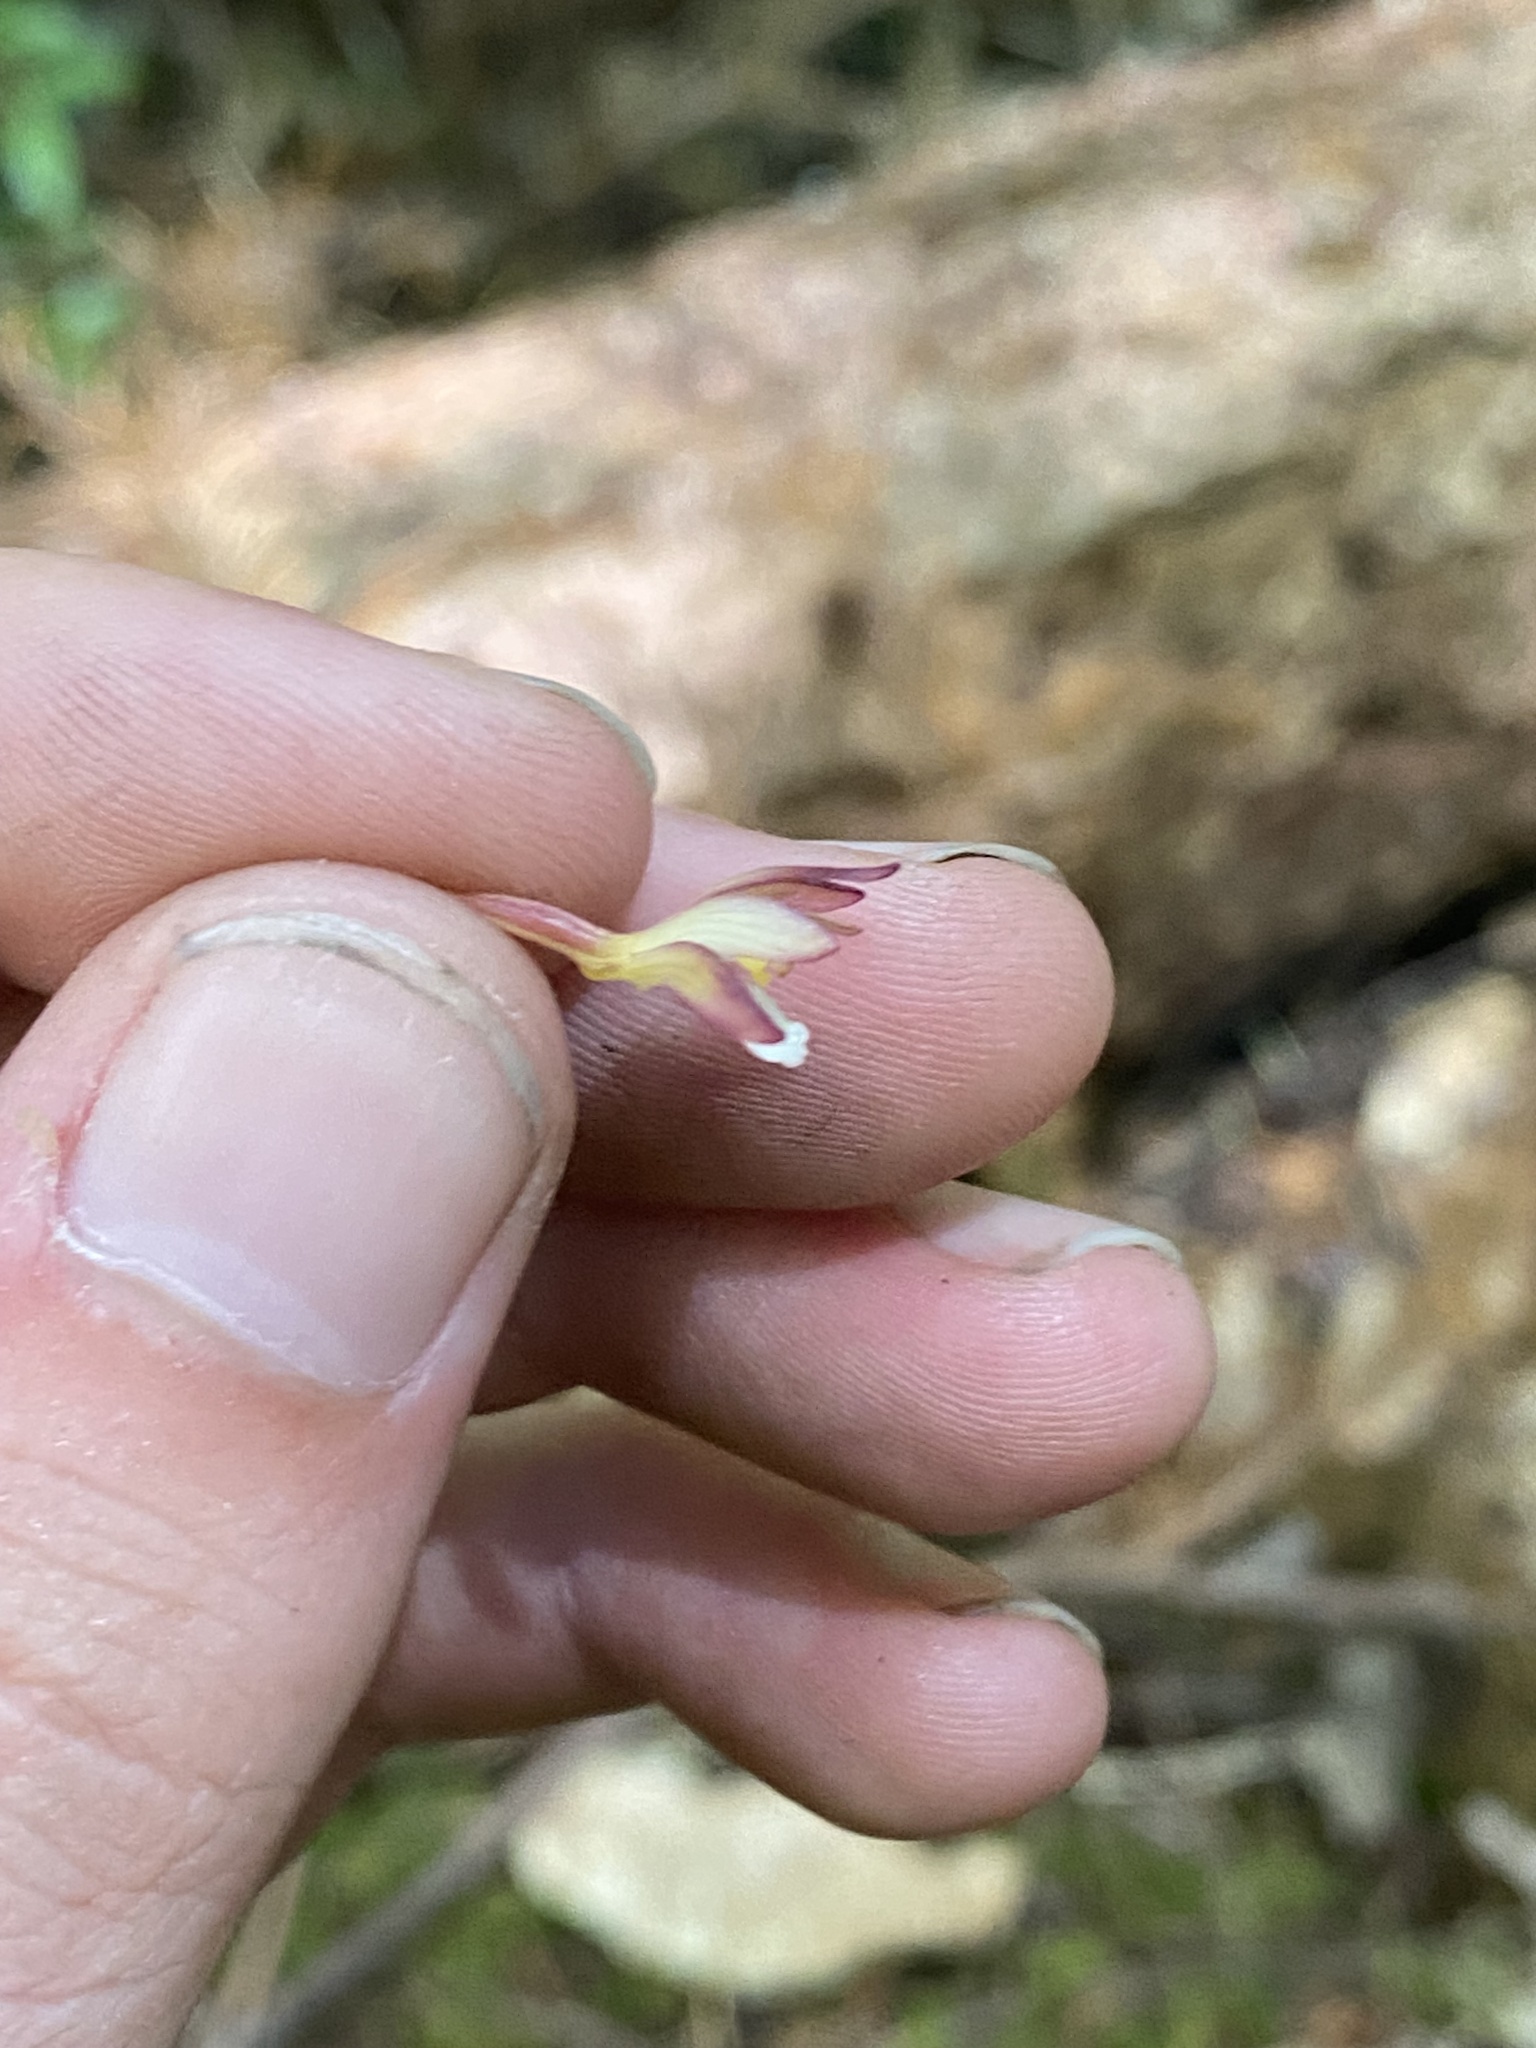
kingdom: Plantae
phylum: Tracheophyta
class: Liliopsida
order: Asparagales
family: Orchidaceae
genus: Corallorhiza
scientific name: Corallorhiza maculata
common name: Spotted coralroot
